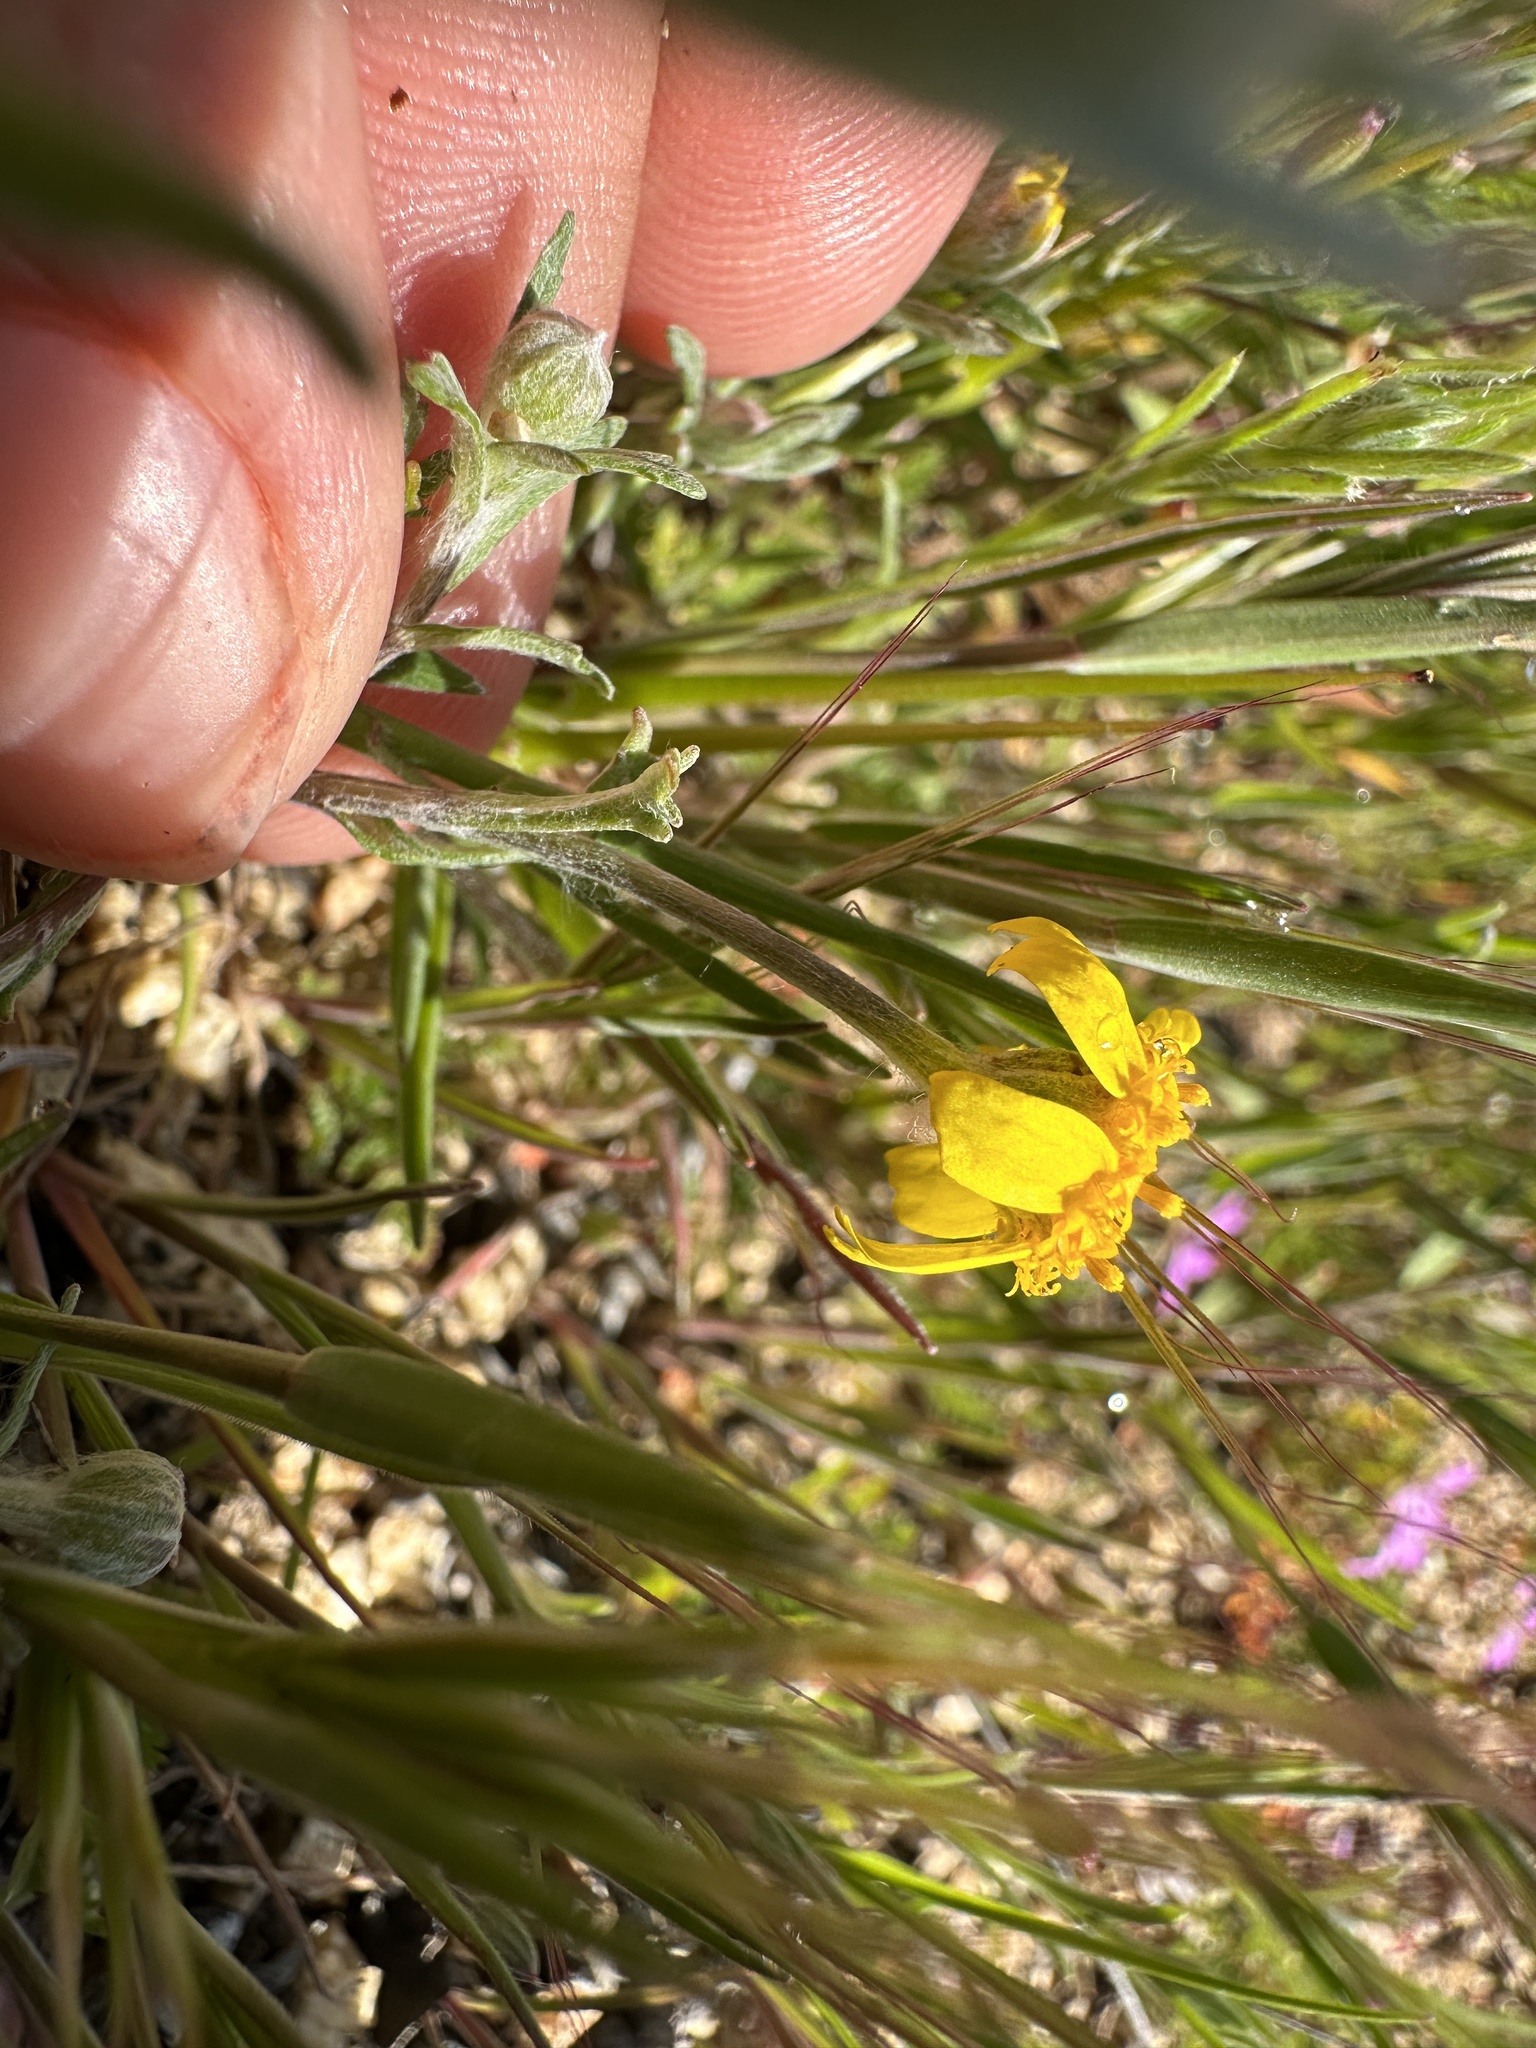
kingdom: Plantae
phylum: Tracheophyta
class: Magnoliopsida
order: Asterales
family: Asteraceae
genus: Eriophyllum
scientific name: Eriophyllum ambiguum
